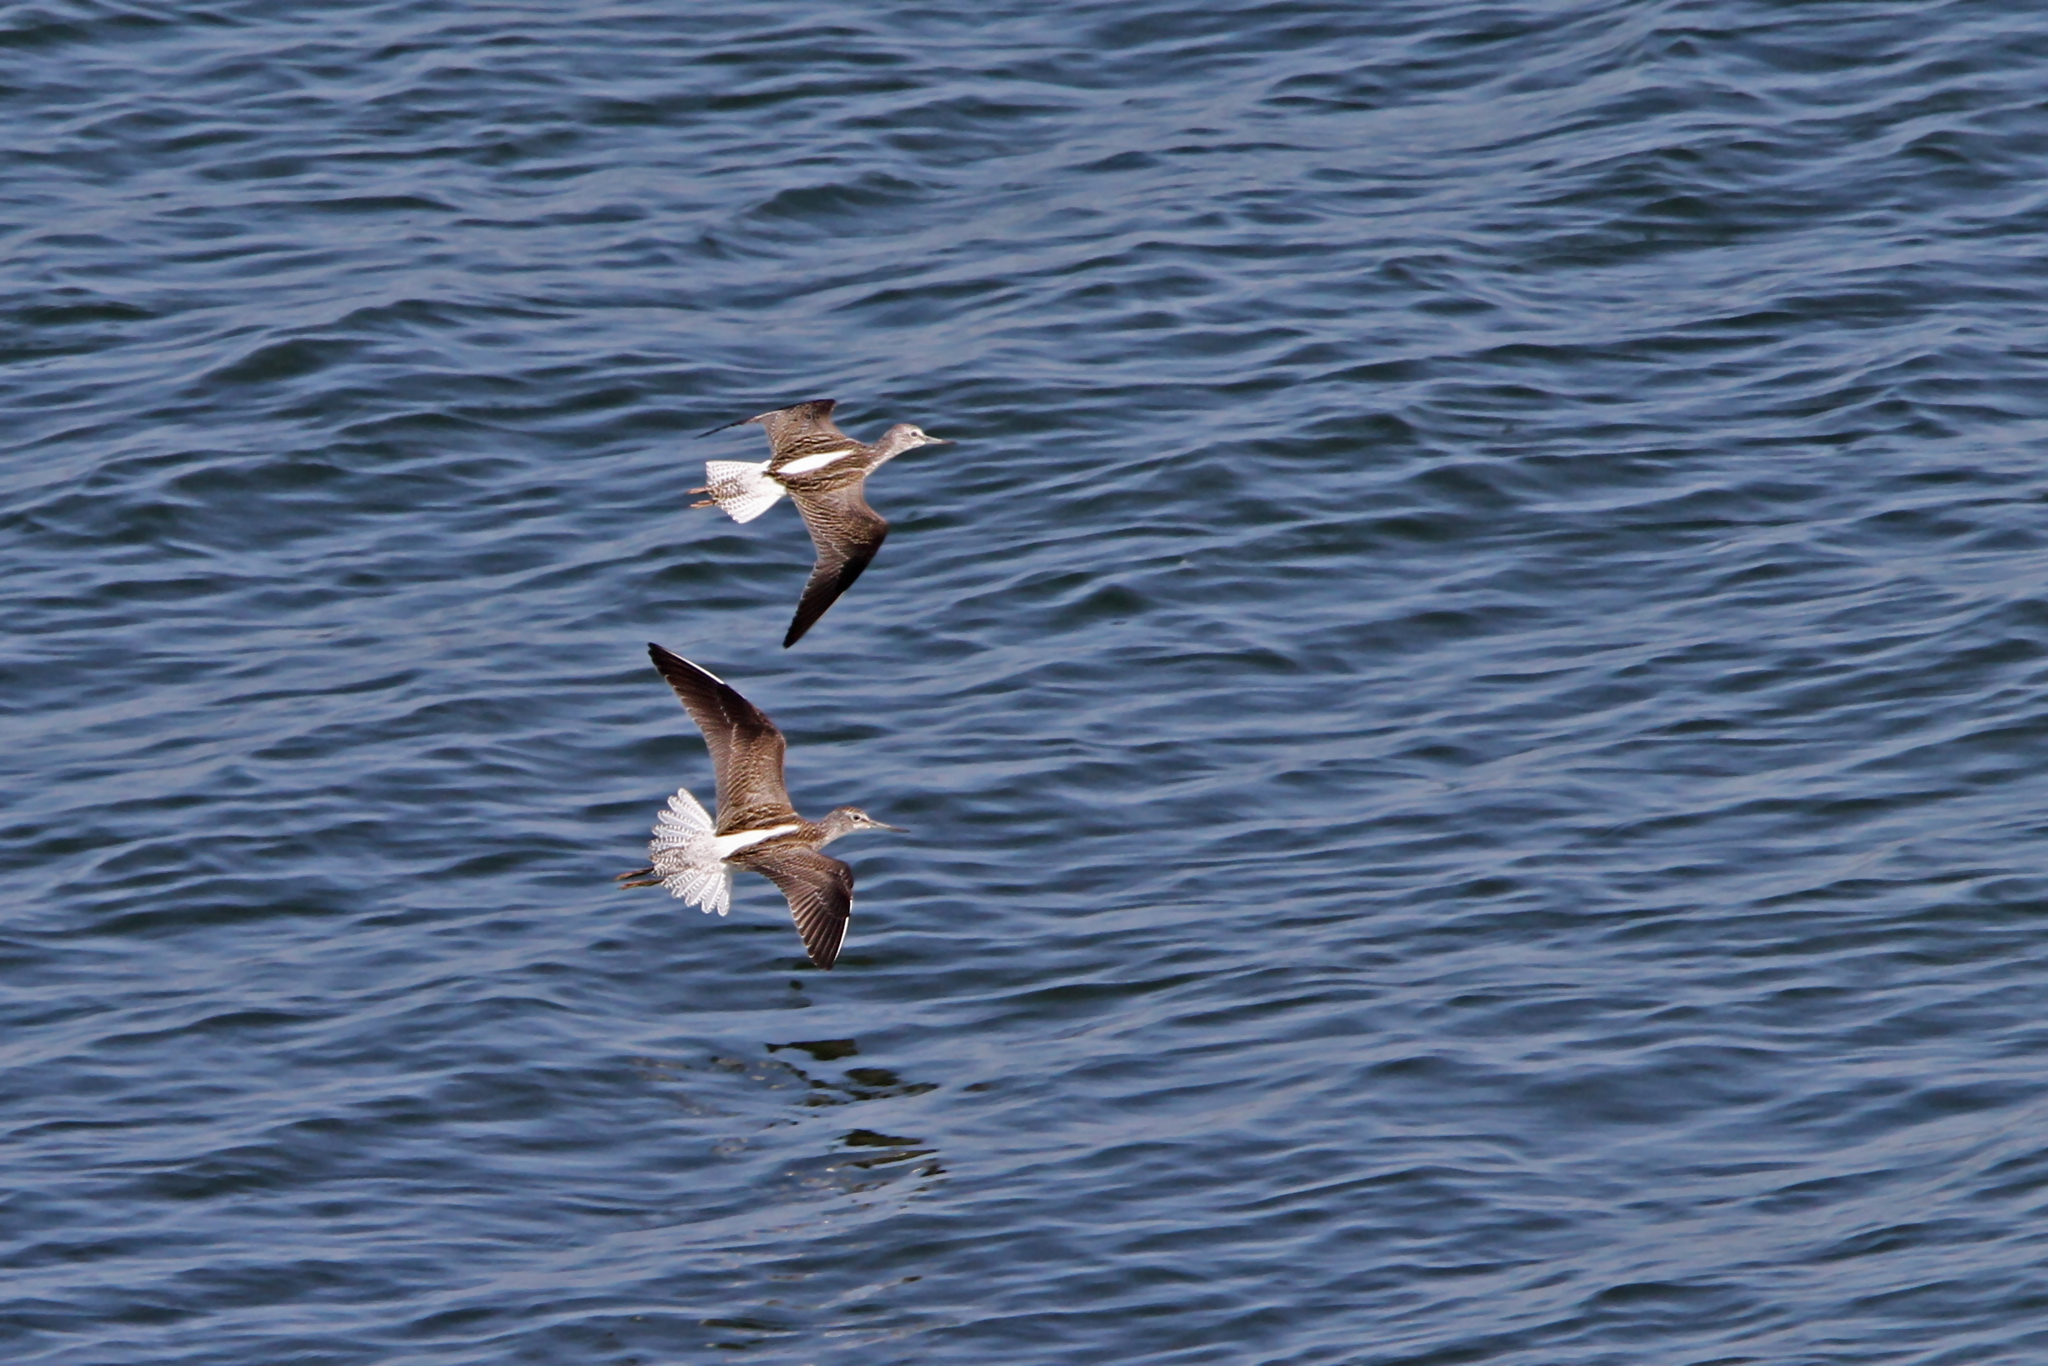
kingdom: Animalia
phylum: Chordata
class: Aves
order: Charadriiformes
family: Scolopacidae
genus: Tringa
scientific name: Tringa nebularia
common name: Common greenshank
